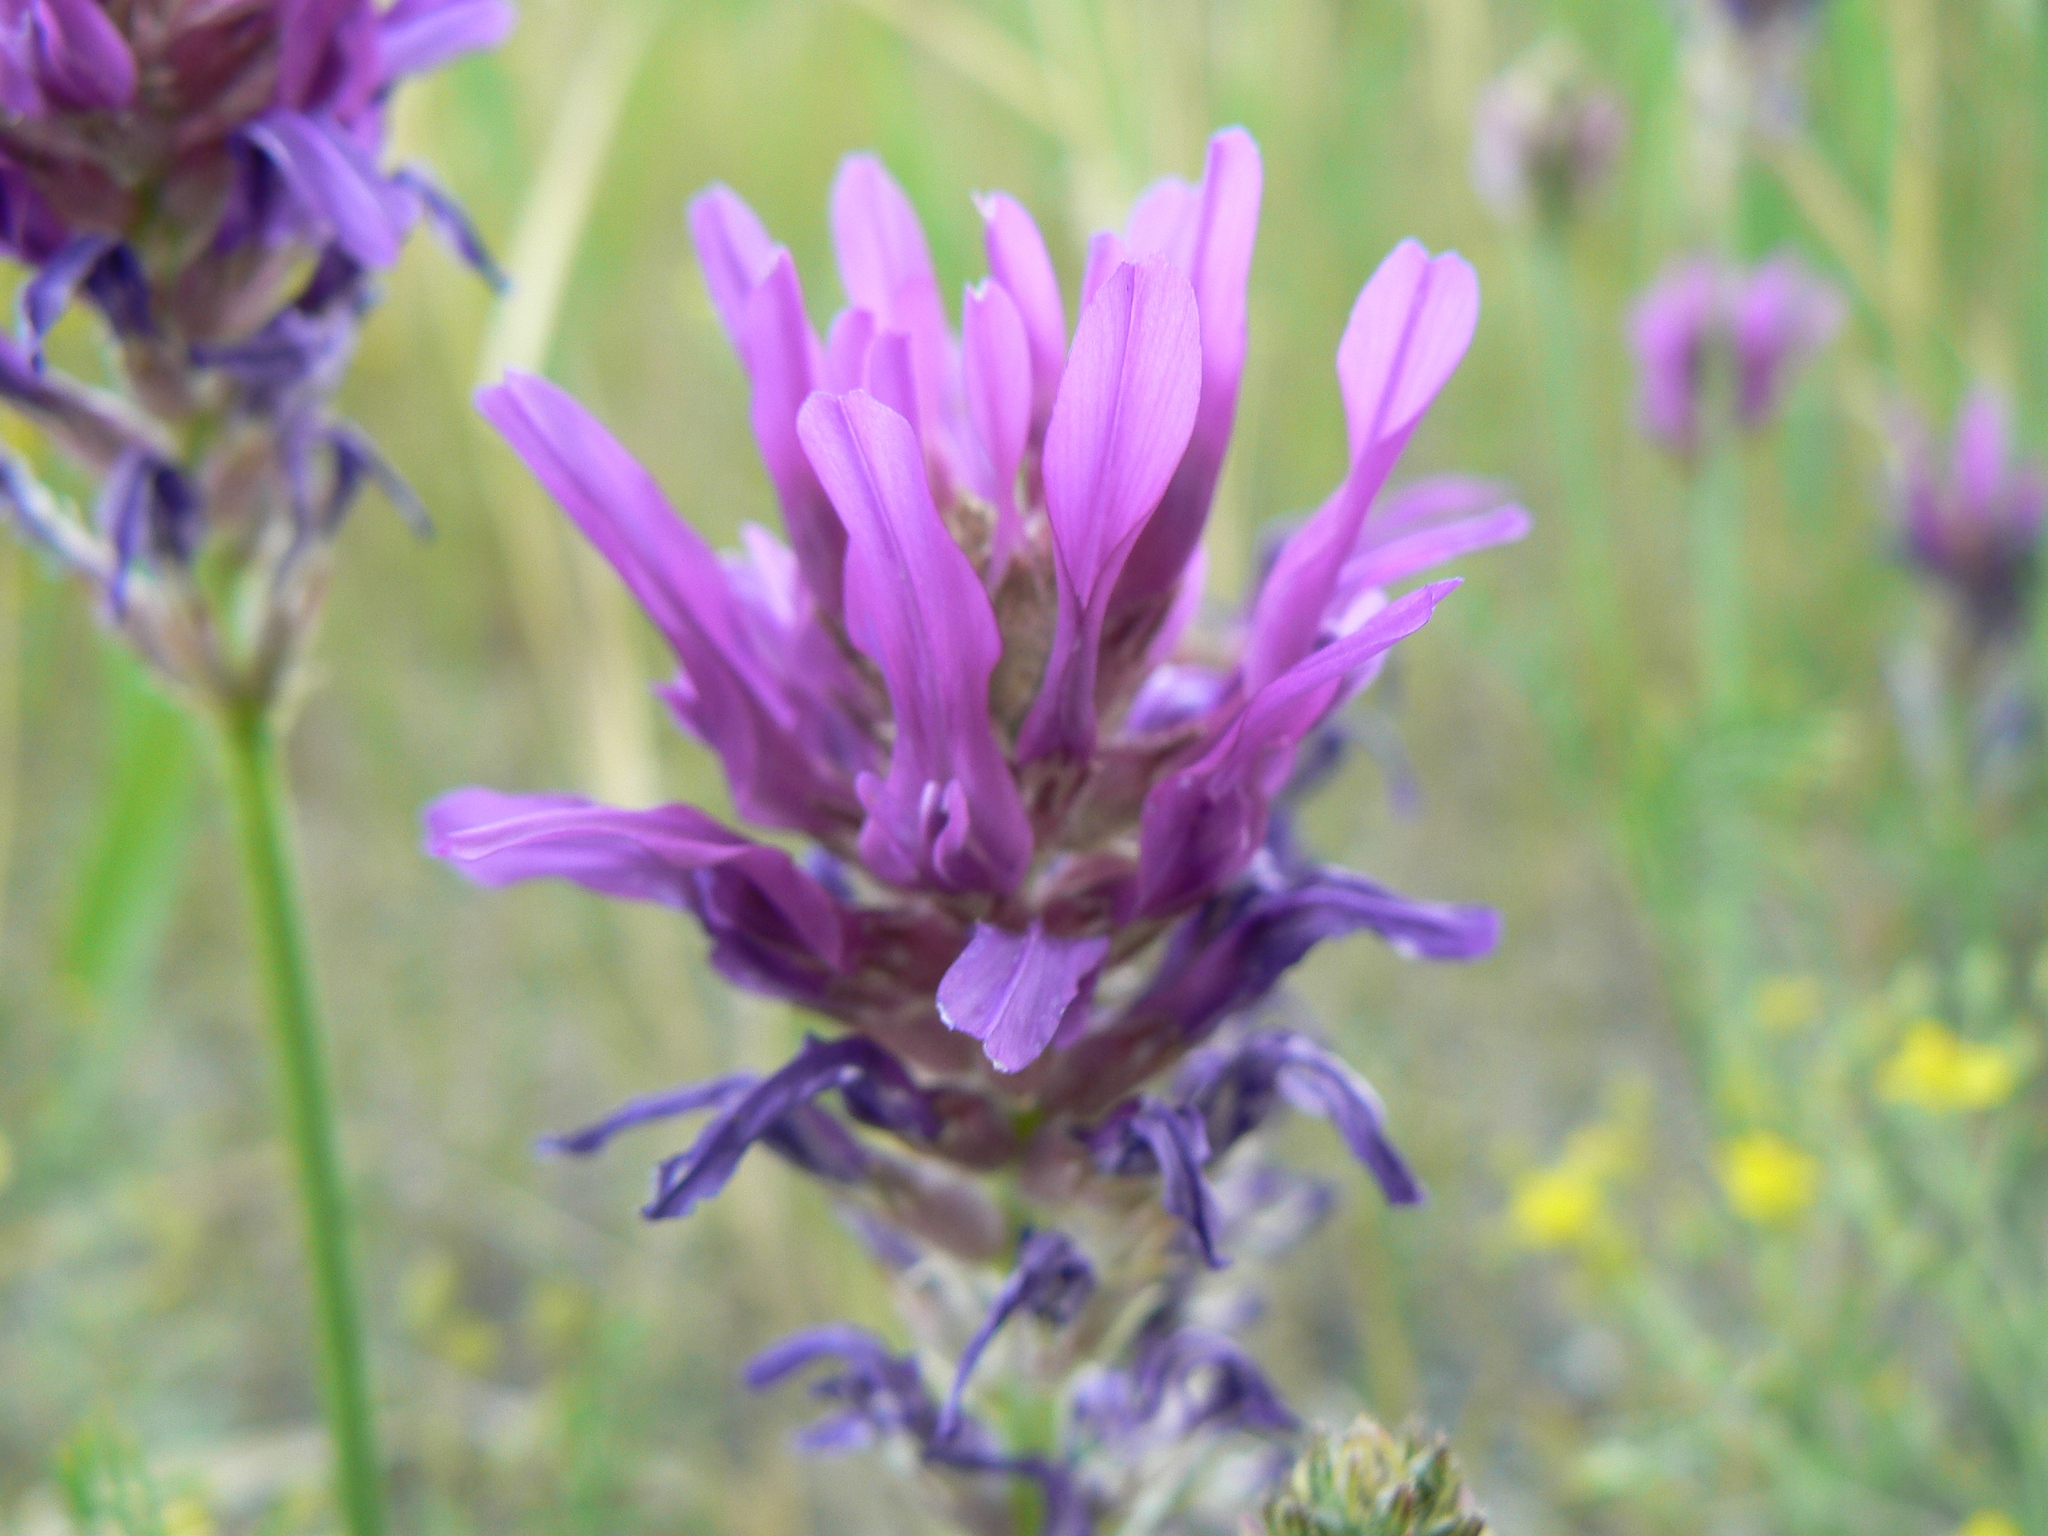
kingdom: Plantae
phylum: Tracheophyta
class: Magnoliopsida
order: Fabales
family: Fabaceae
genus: Astragalus
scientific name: Astragalus onobrychis
